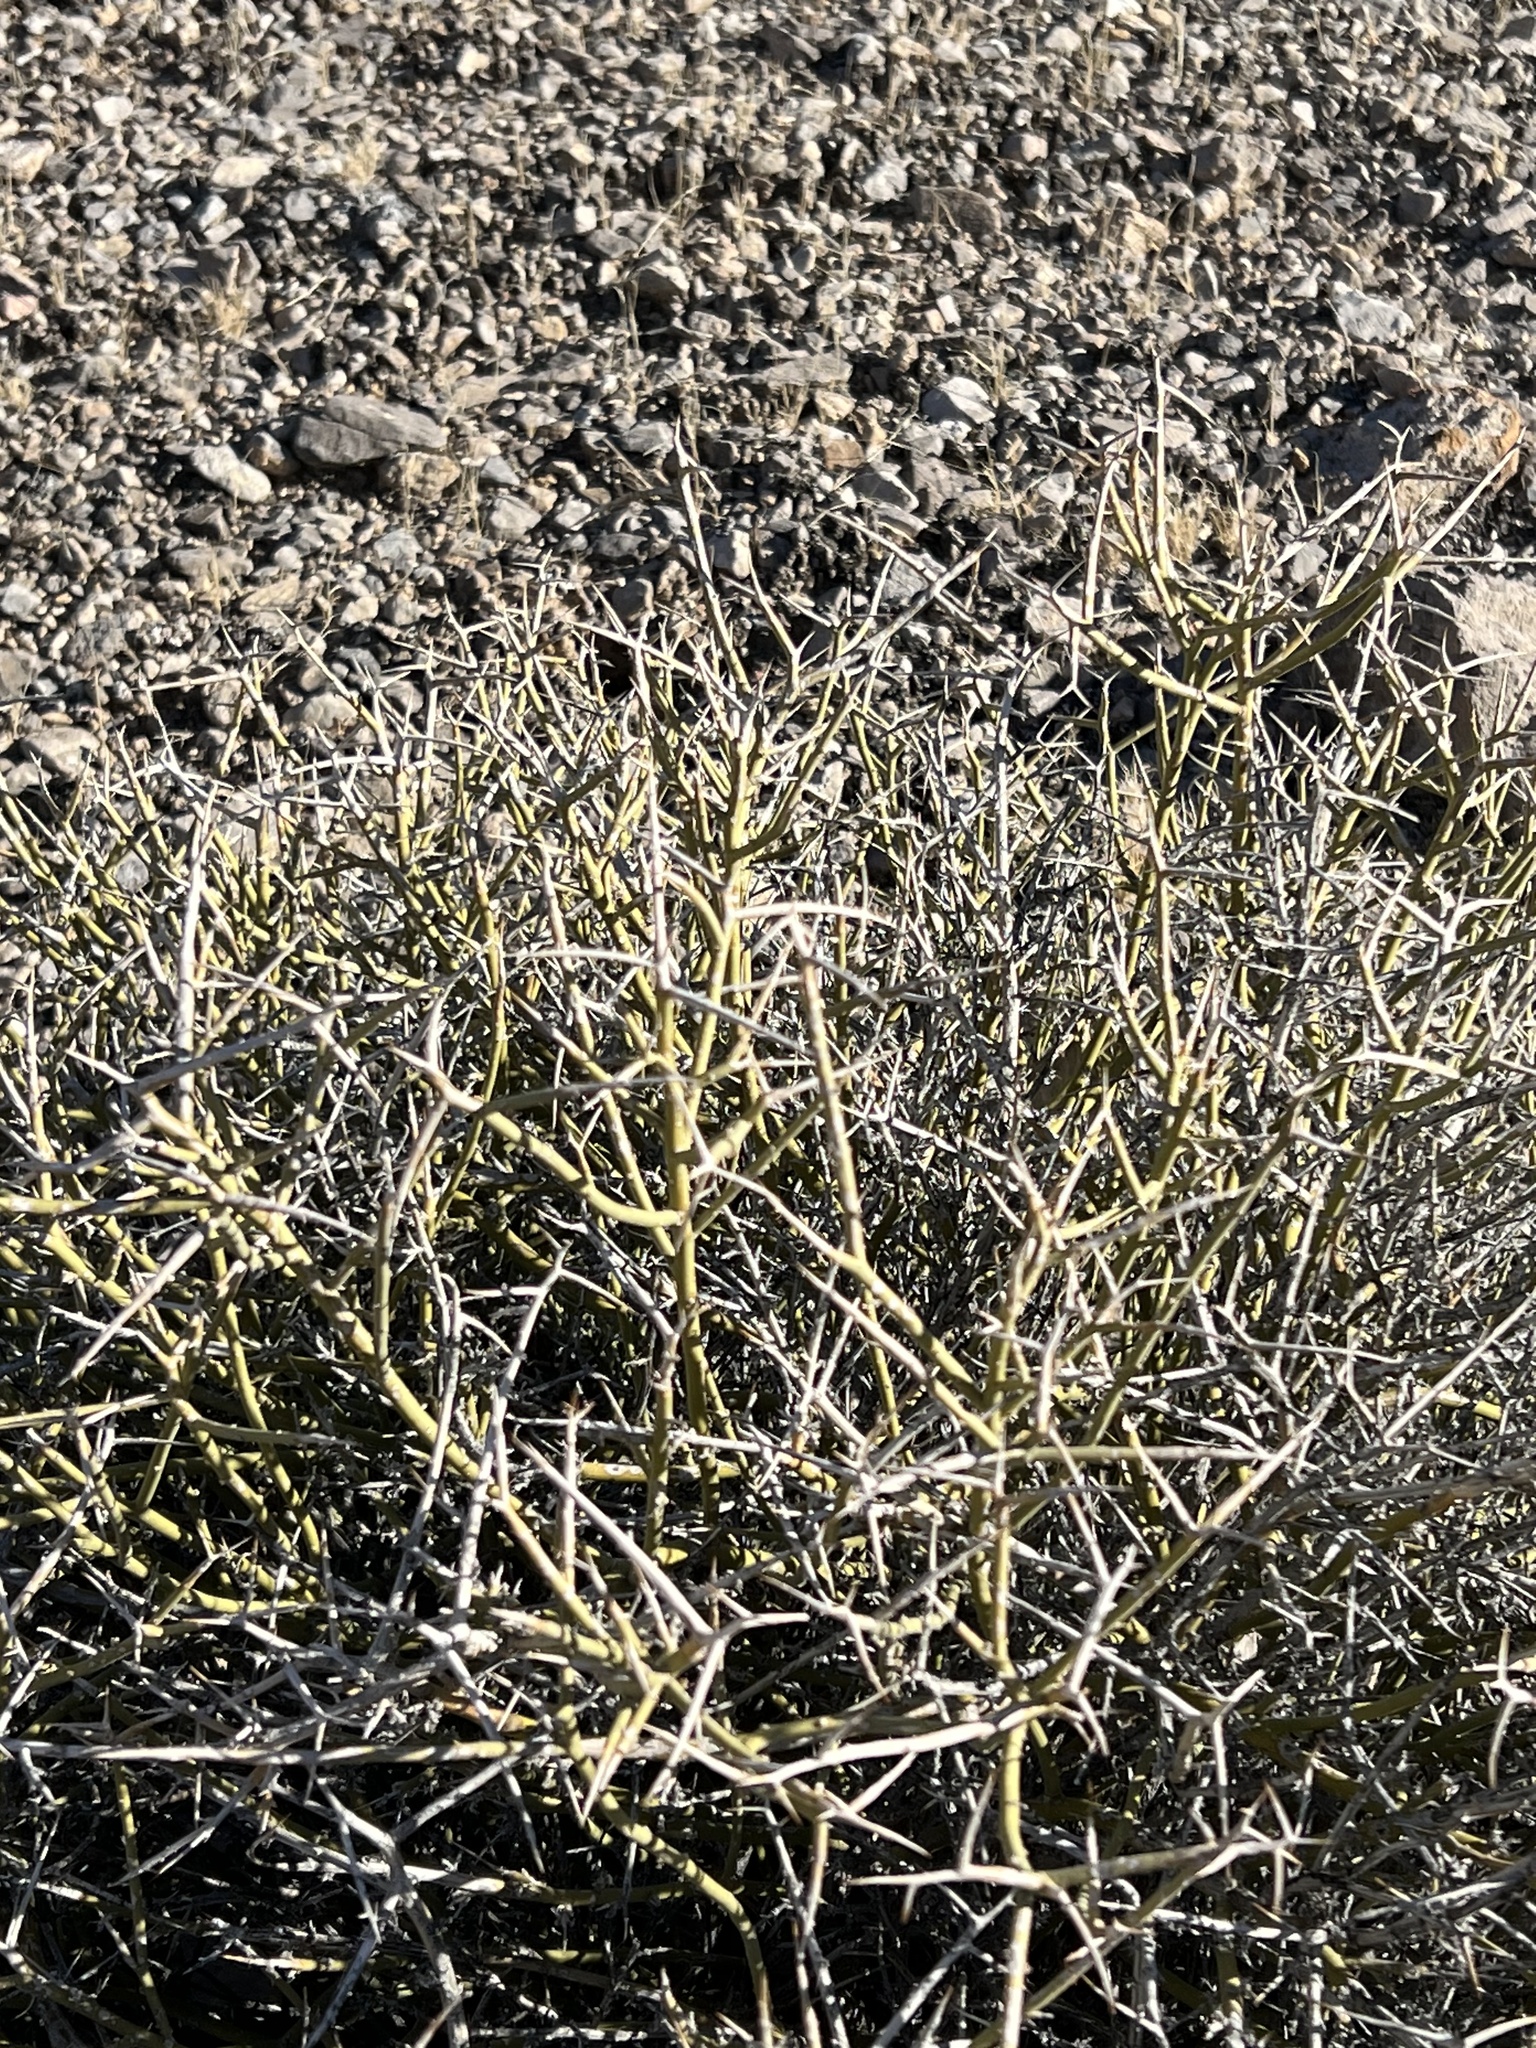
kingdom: Plantae
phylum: Tracheophyta
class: Magnoliopsida
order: Lamiales
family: Oleaceae
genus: Menodora
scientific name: Menodora spinescens
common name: Spiny menodora
